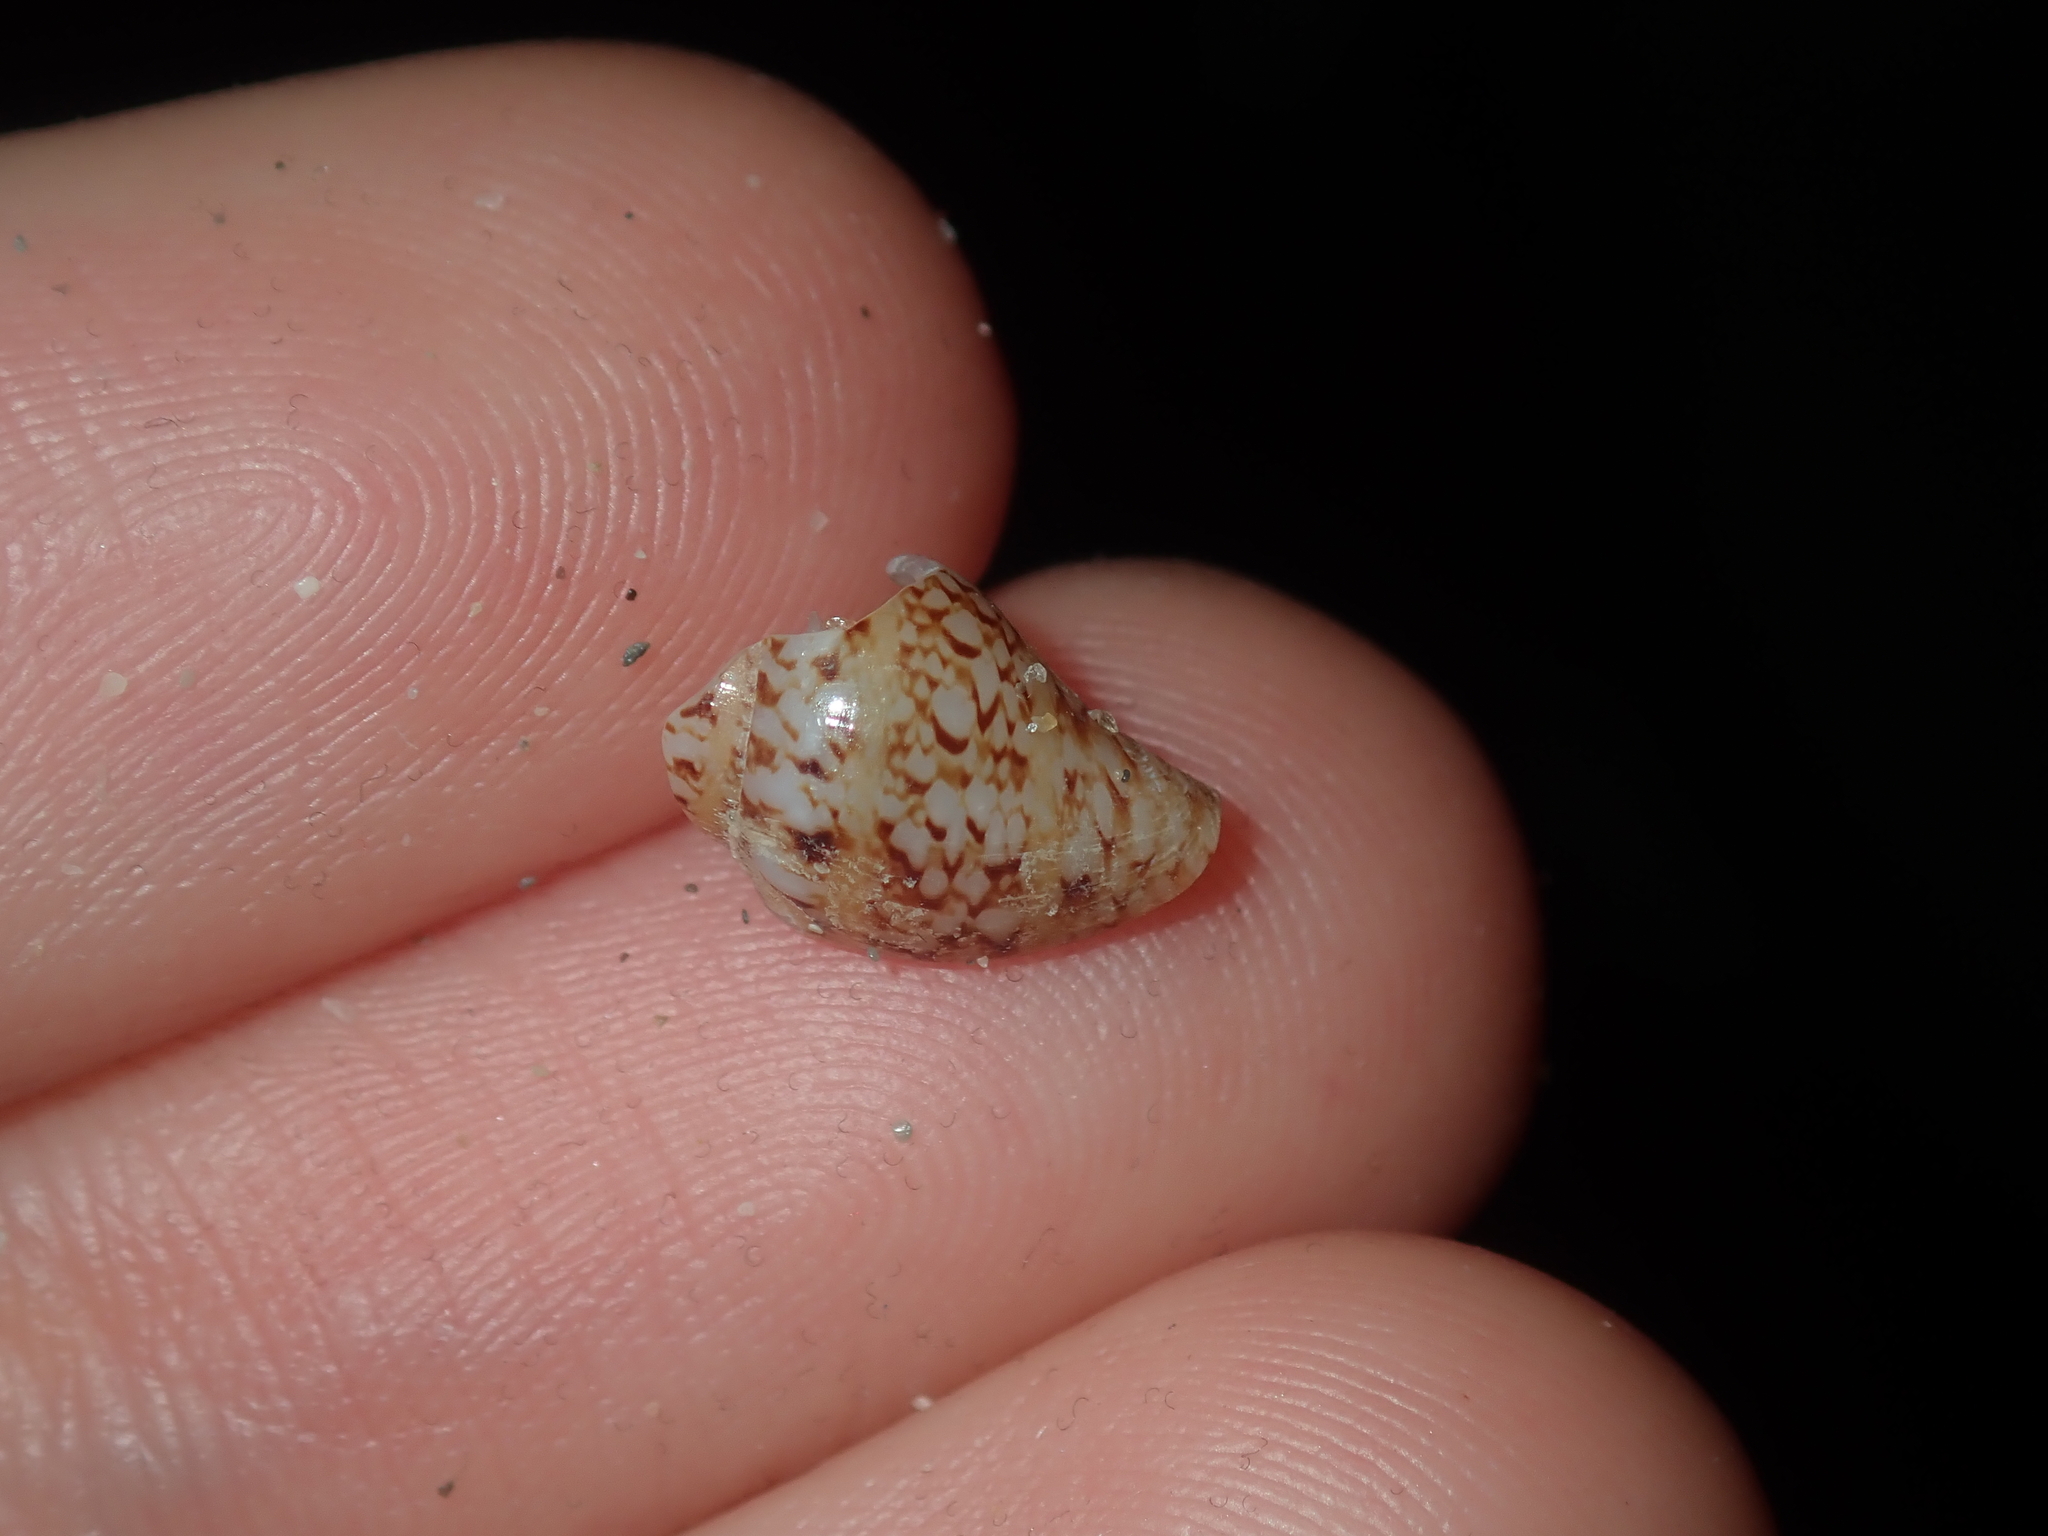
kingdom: Animalia
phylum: Mollusca
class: Gastropoda
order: Neogastropoda
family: Columbellidae
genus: Euplica
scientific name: Euplica bidentata
